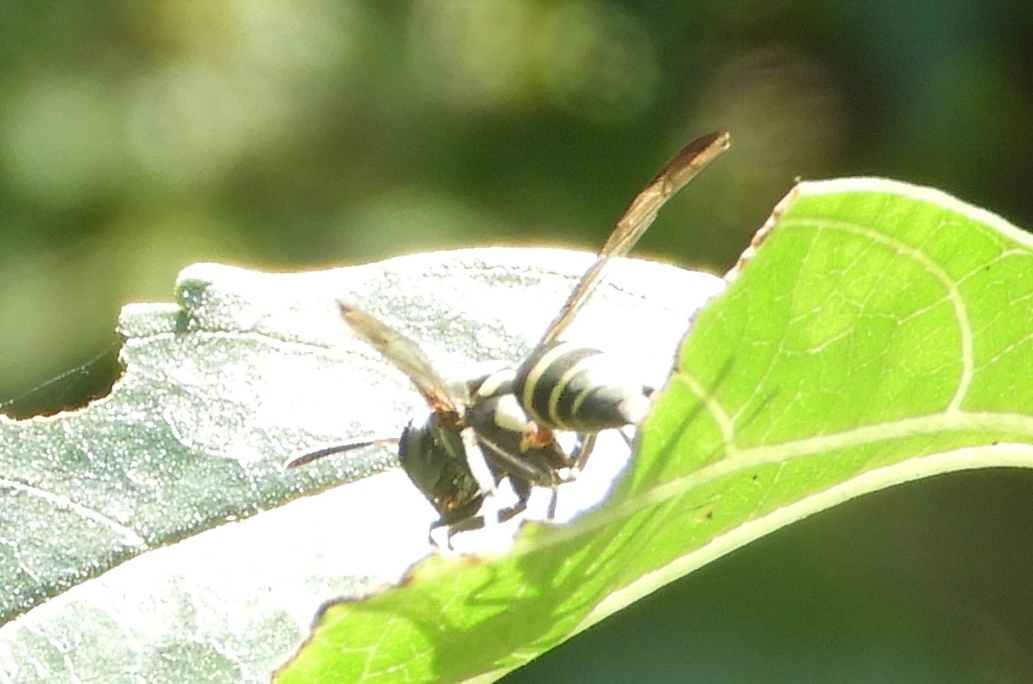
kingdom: Animalia
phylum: Arthropoda
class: Insecta
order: Hymenoptera
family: Vespidae
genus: Myrapetra
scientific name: Myrapetra
